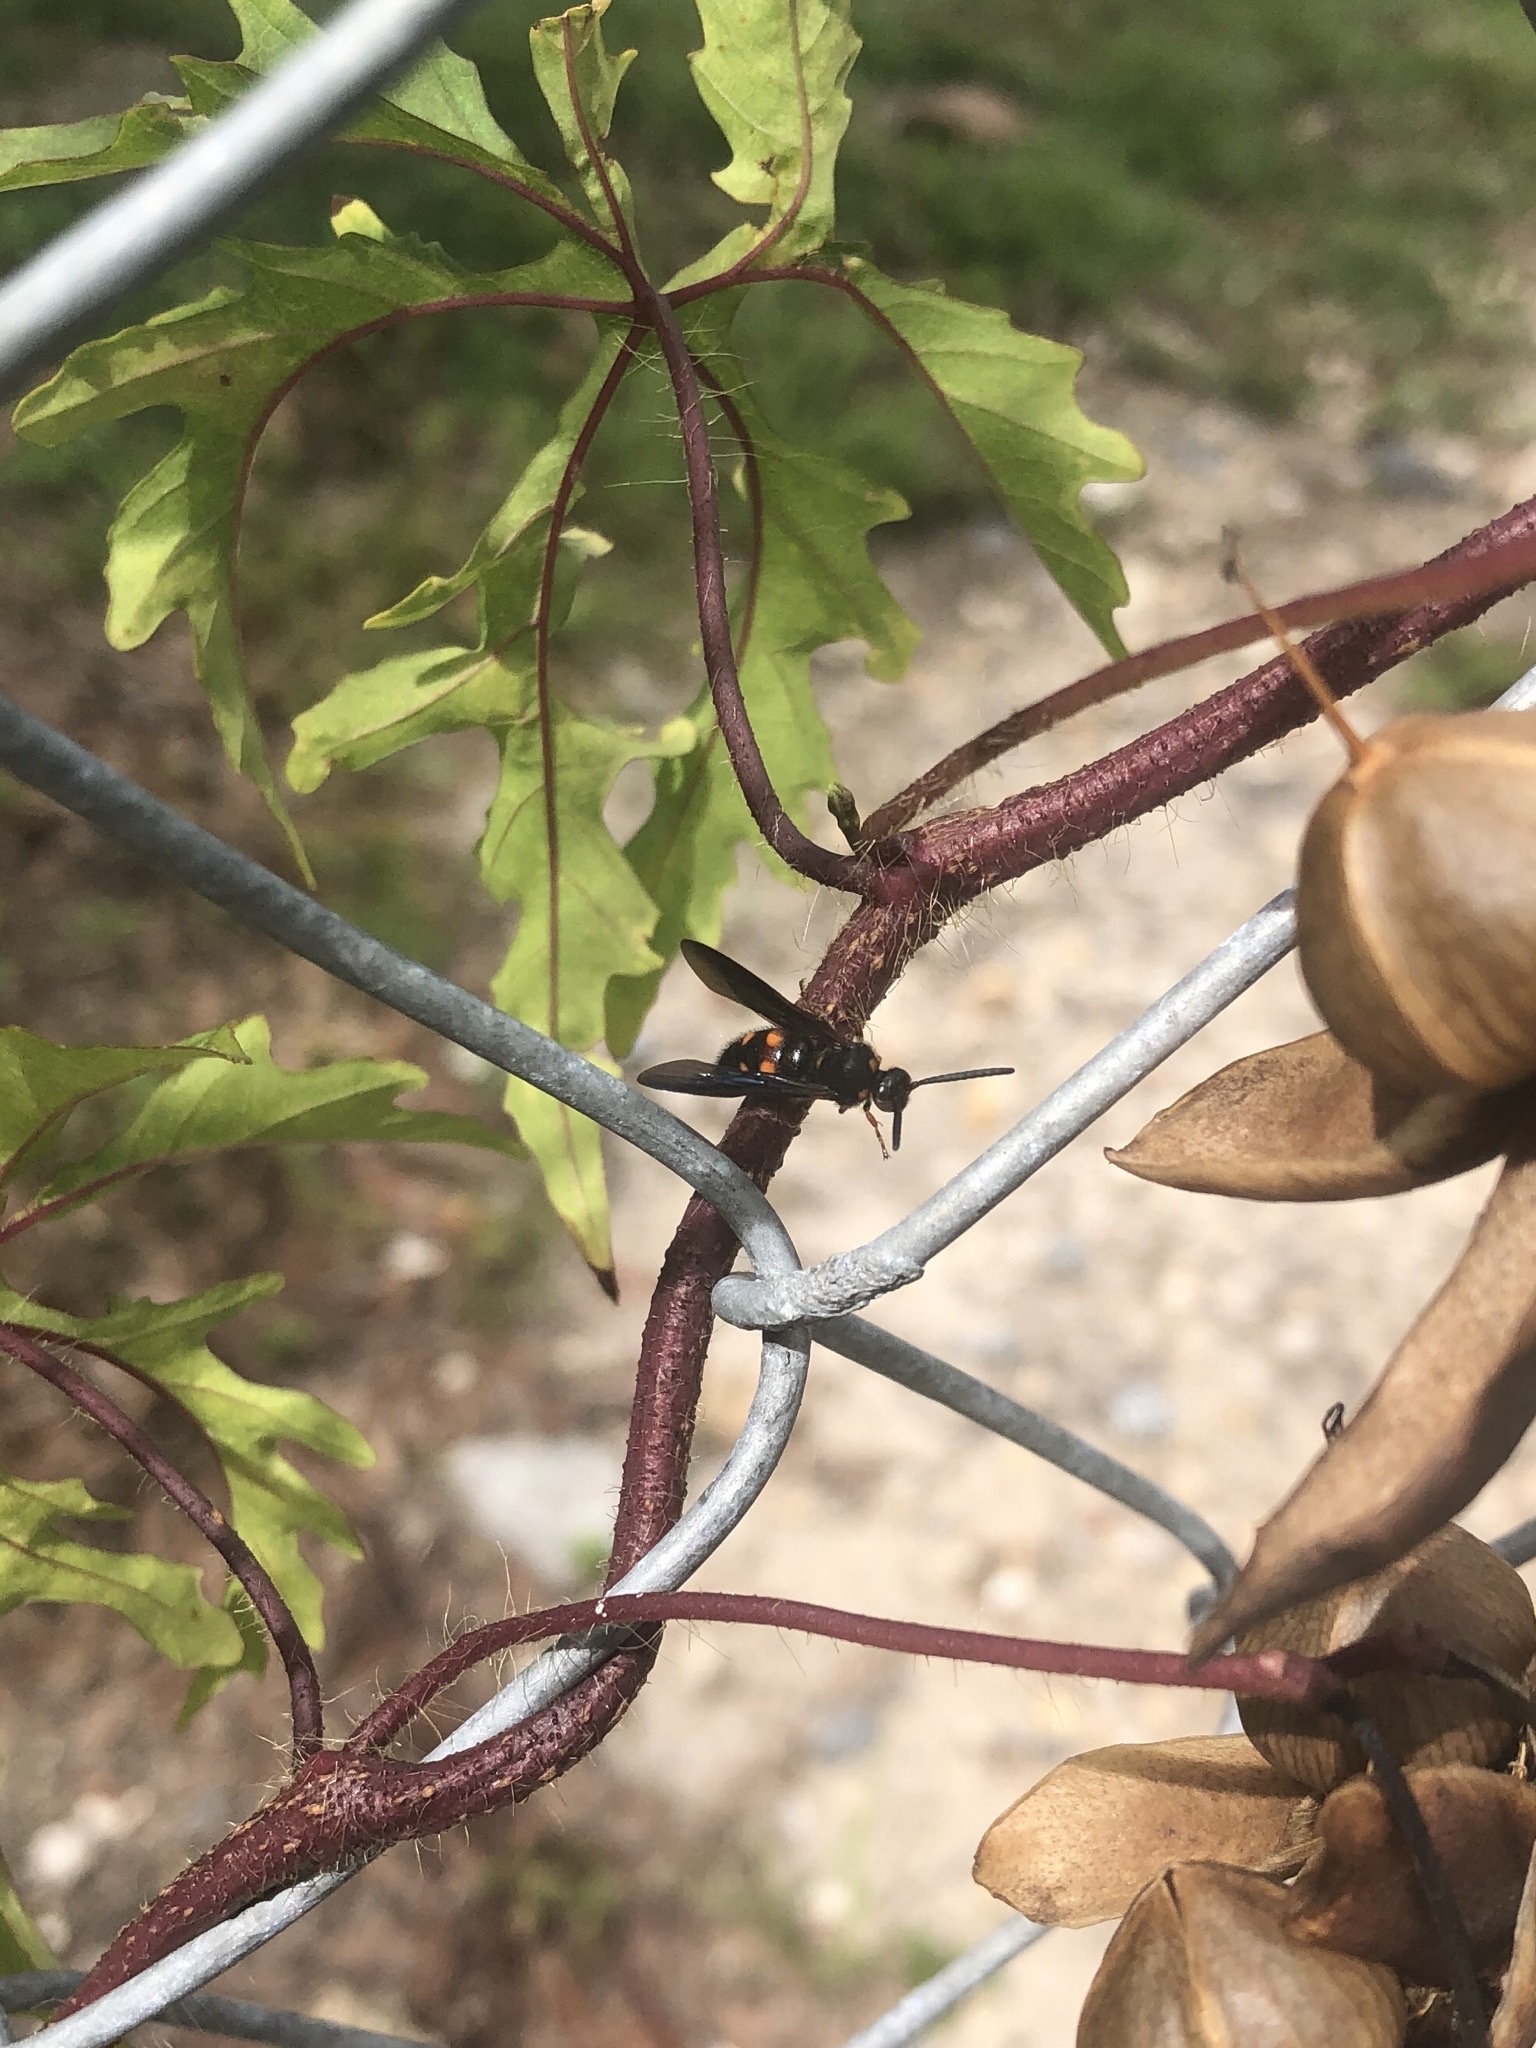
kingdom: Animalia
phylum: Arthropoda
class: Insecta
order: Hymenoptera
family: Scoliidae
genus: Scolia
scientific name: Scolia nobilitata
